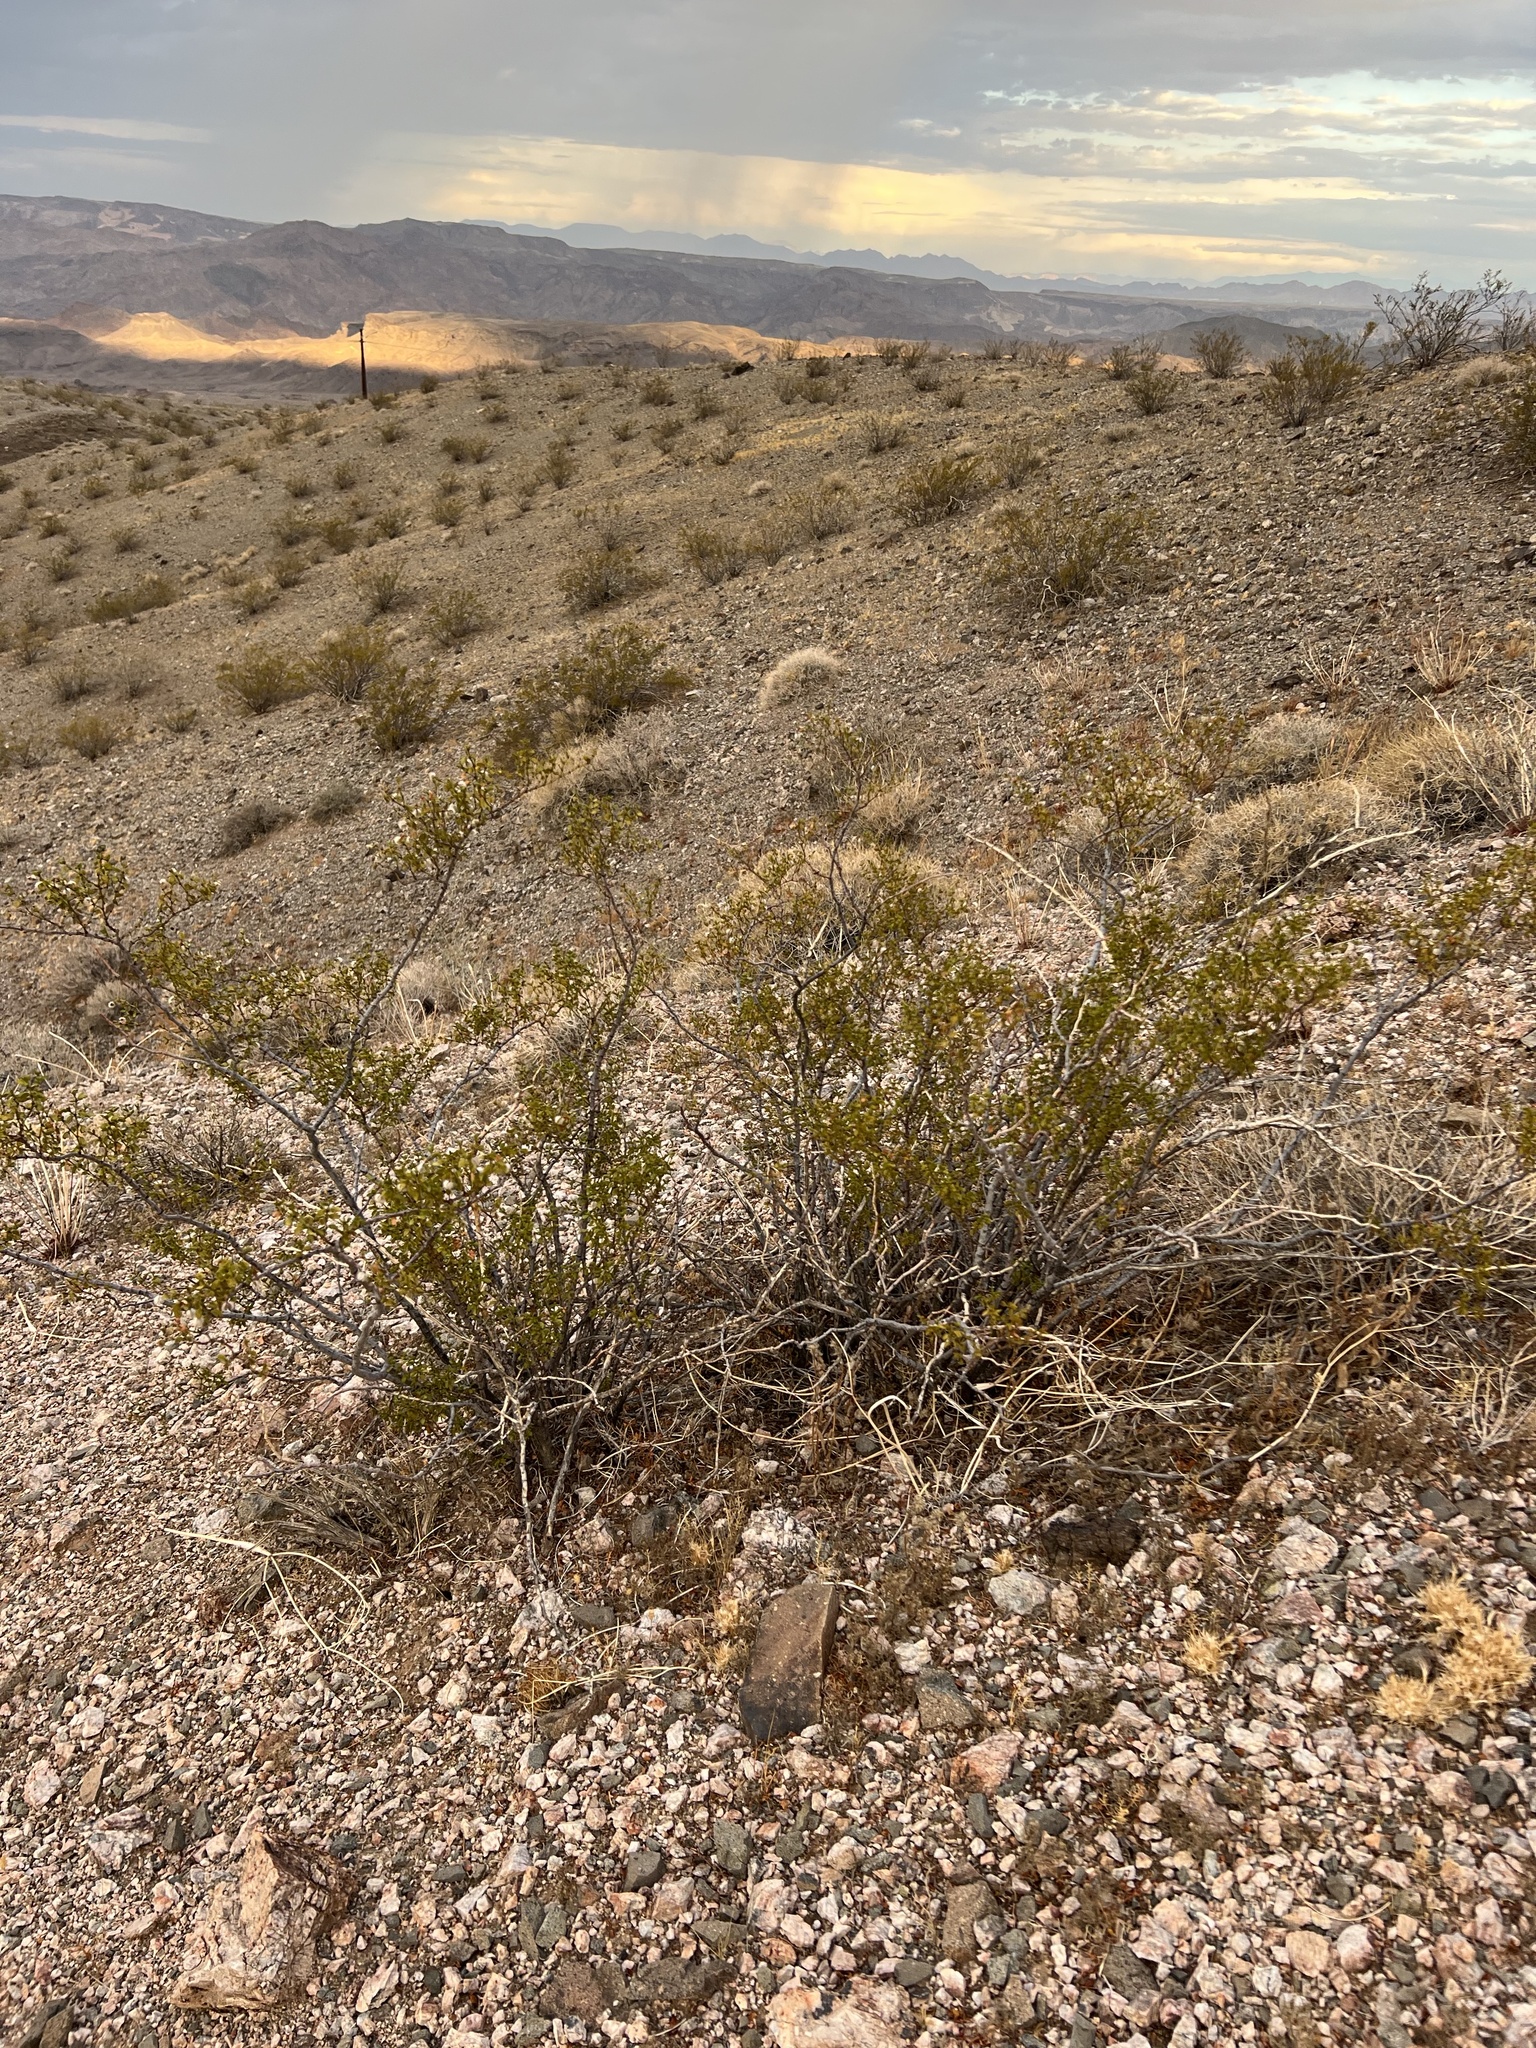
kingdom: Plantae
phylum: Tracheophyta
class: Magnoliopsida
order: Zygophyllales
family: Zygophyllaceae
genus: Larrea
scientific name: Larrea tridentata
